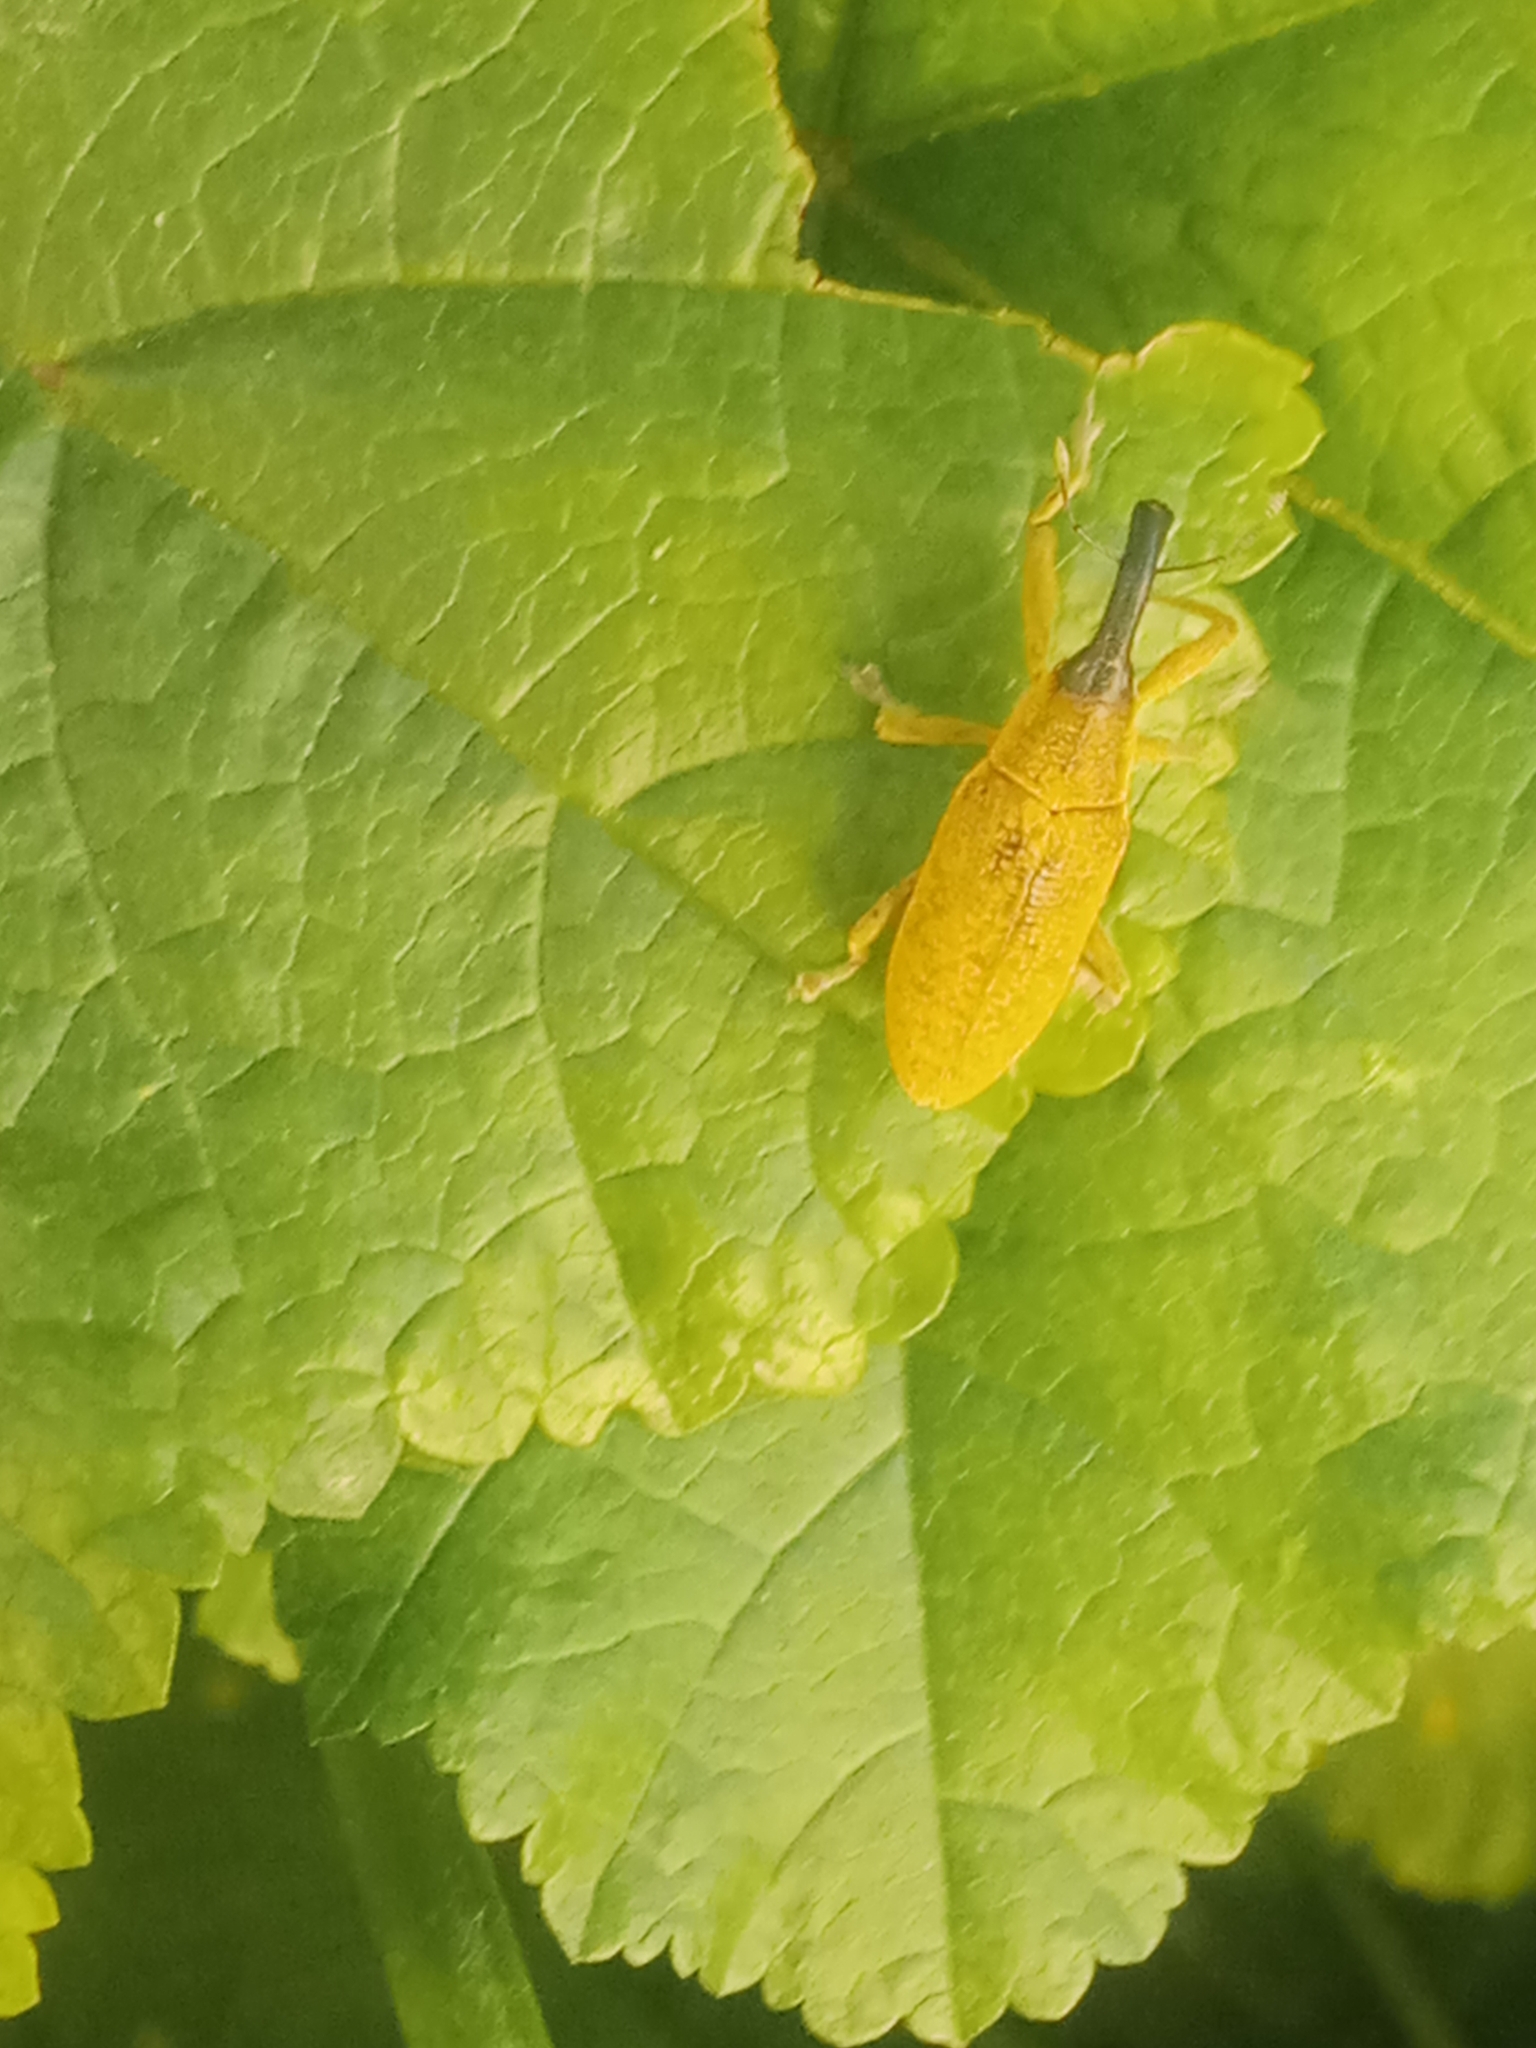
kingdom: Animalia
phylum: Arthropoda
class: Insecta
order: Coleoptera
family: Curculionidae
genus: Lixus
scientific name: Lixus pulverulentus
